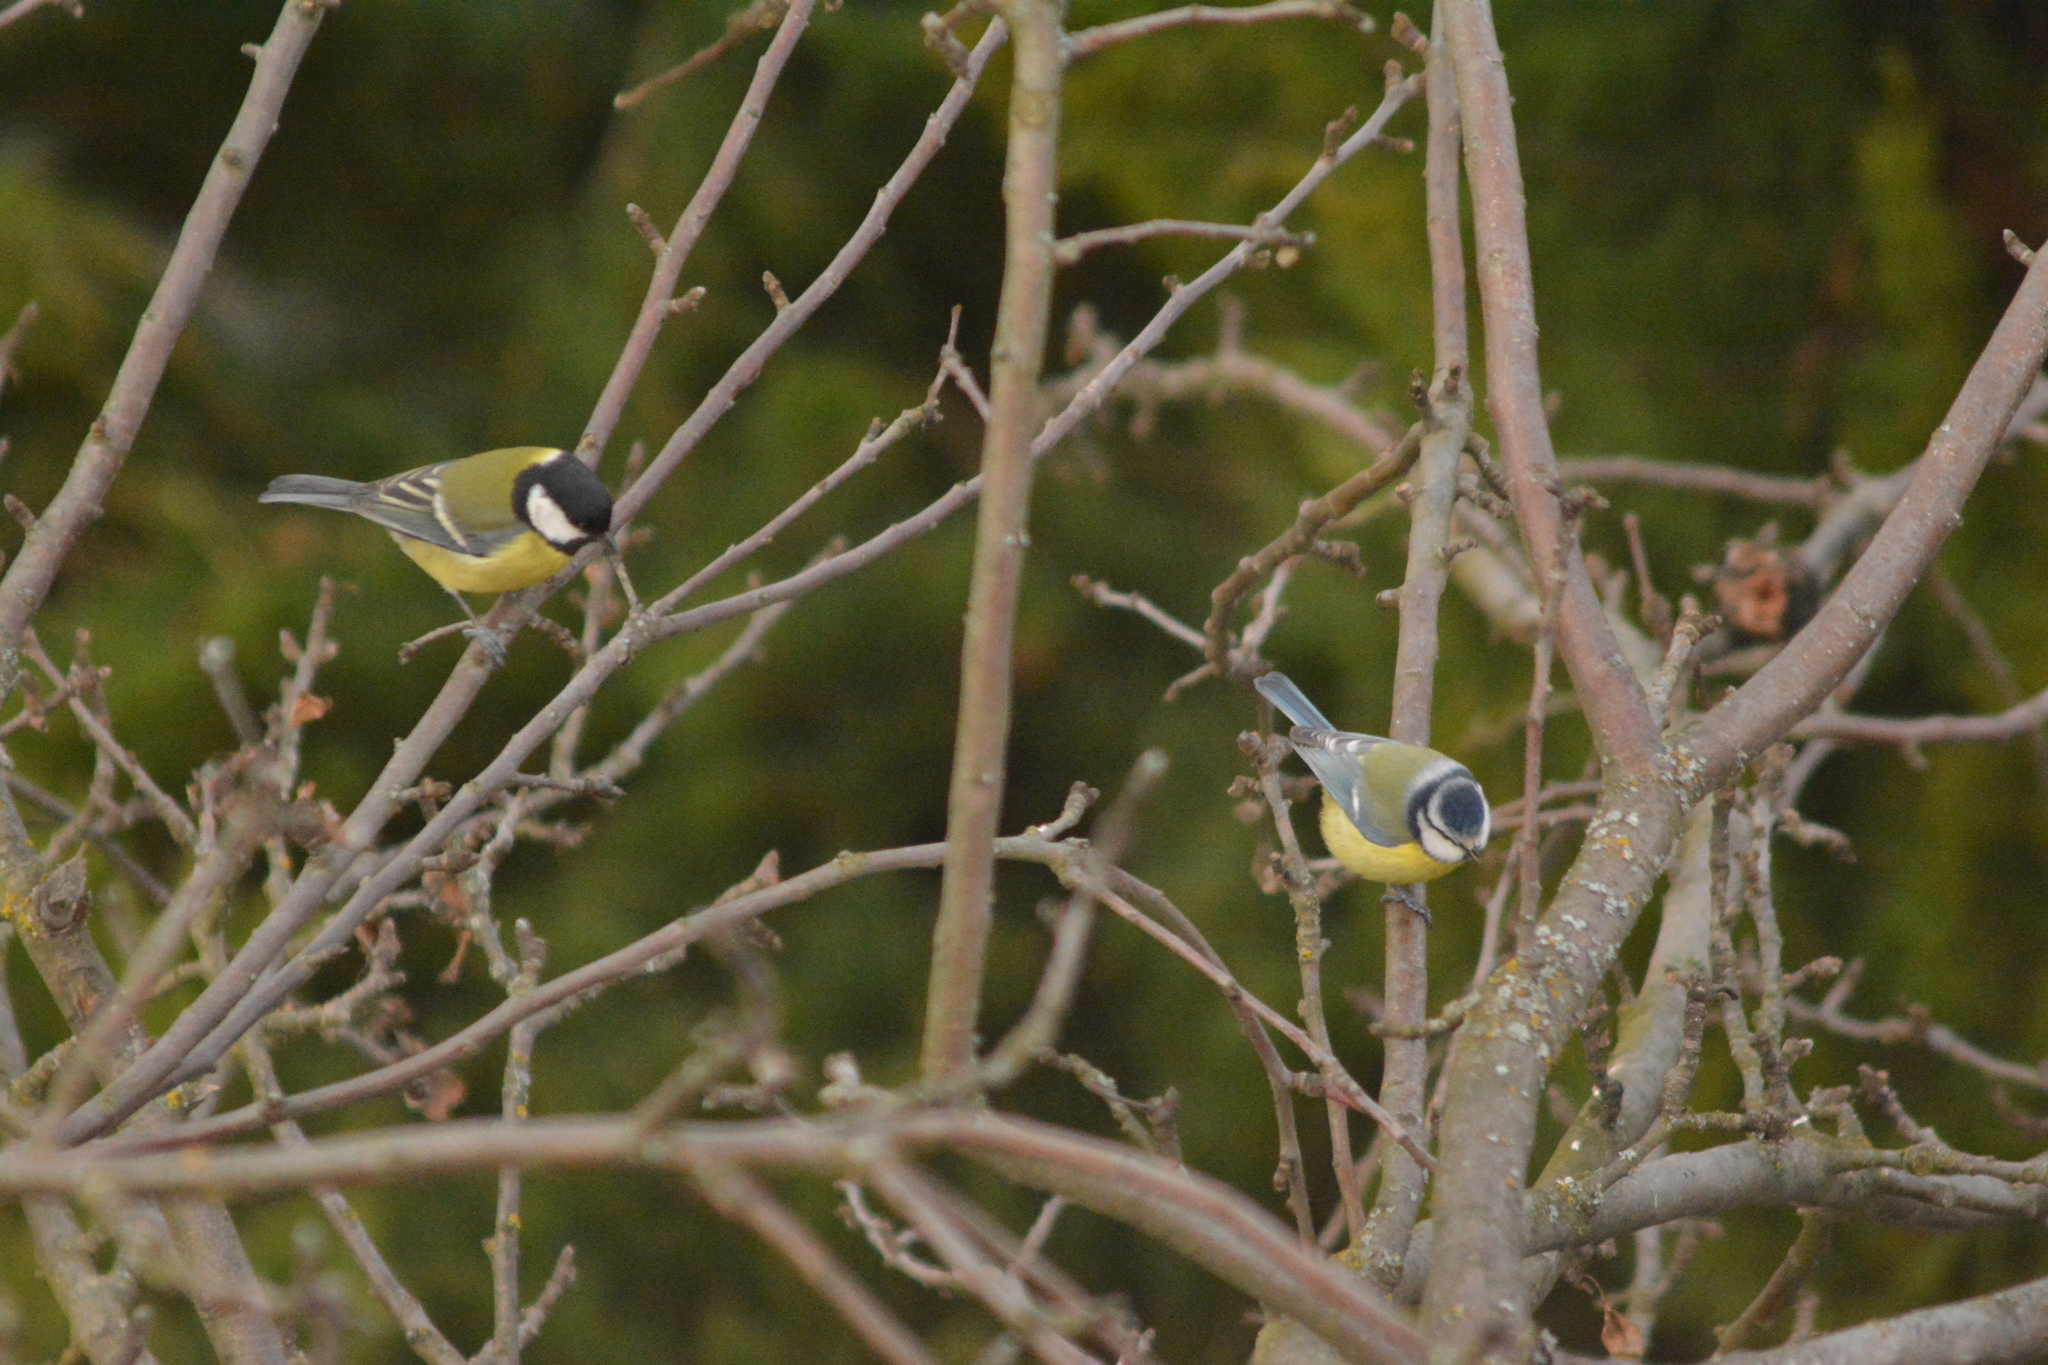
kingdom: Animalia
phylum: Chordata
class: Aves
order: Passeriformes
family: Paridae
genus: Cyanistes
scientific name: Cyanistes caeruleus
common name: Eurasian blue tit
